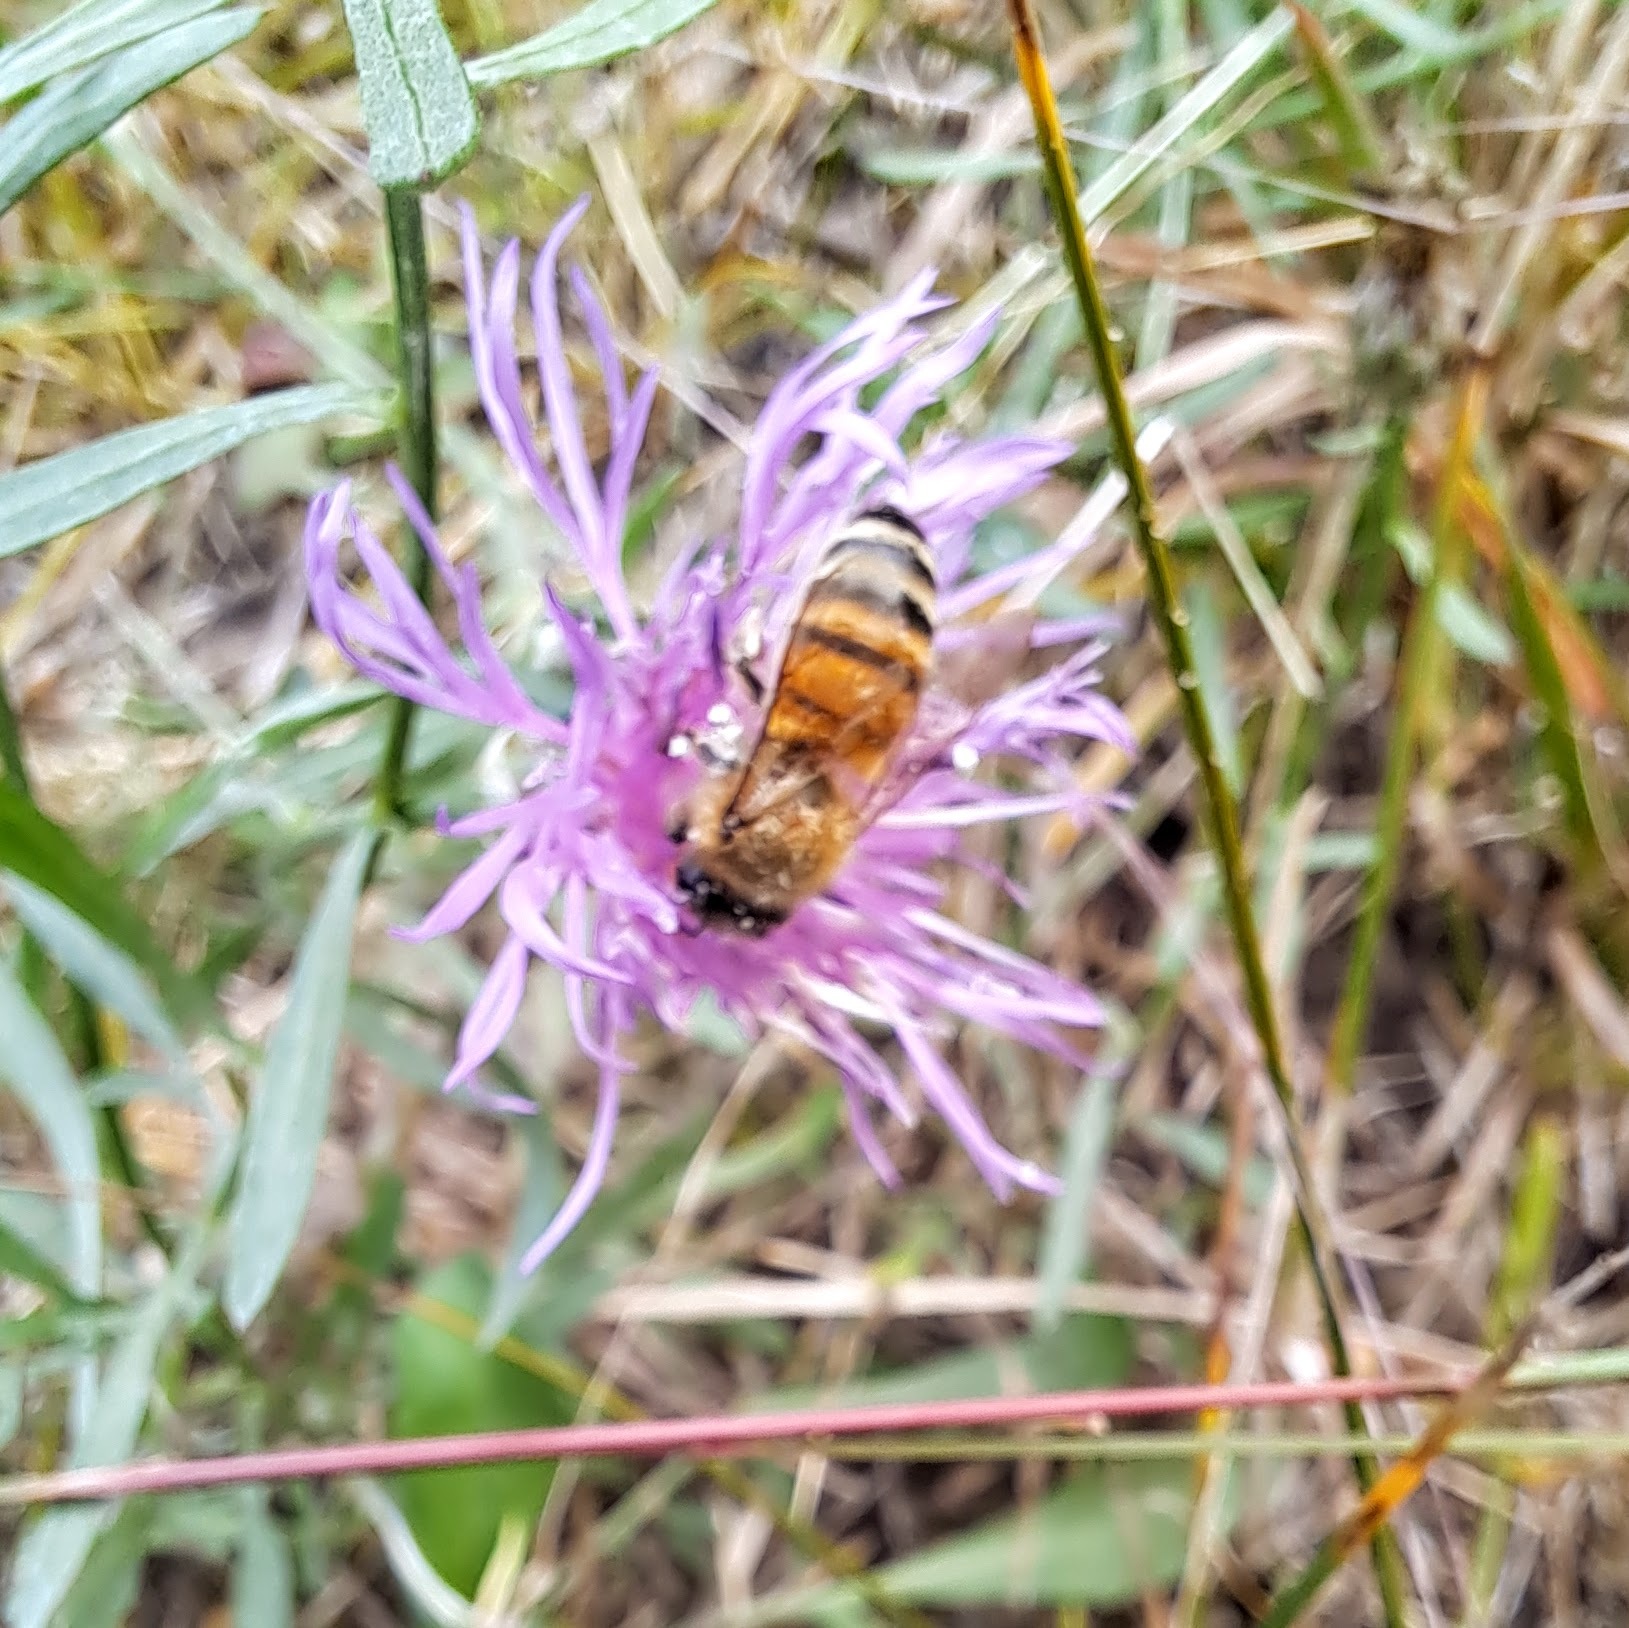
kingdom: Animalia
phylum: Arthropoda
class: Insecta
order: Hymenoptera
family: Apidae
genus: Apis
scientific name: Apis mellifera
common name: Honey bee
